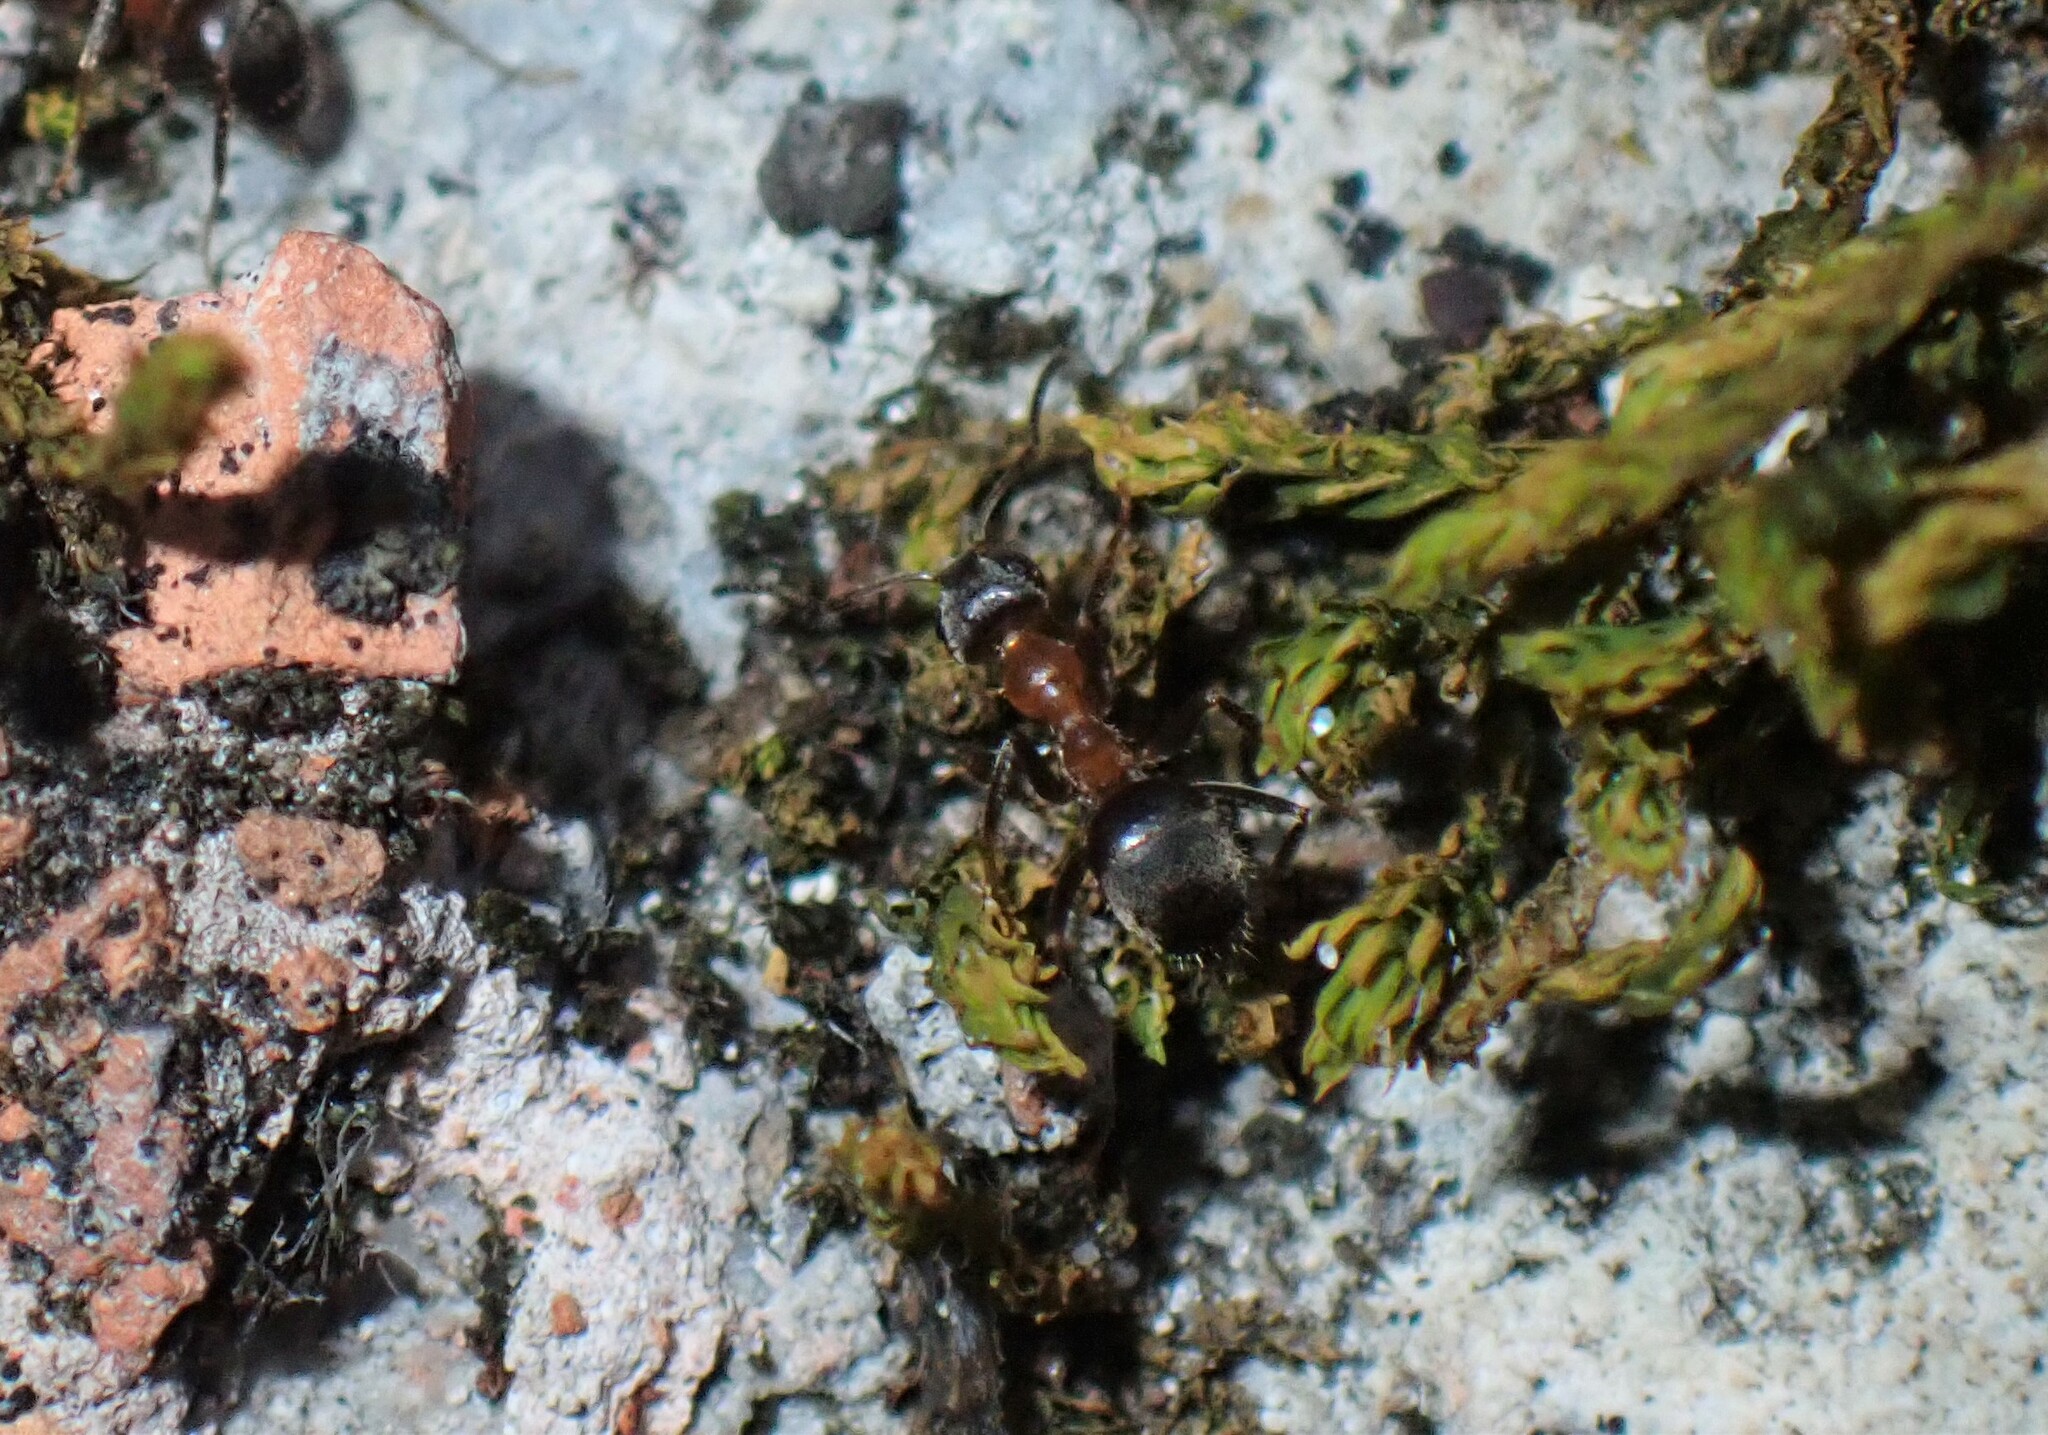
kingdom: Animalia
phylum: Arthropoda
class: Insecta
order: Hymenoptera
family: Formicidae
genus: Lasius
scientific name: Lasius emarginatus
